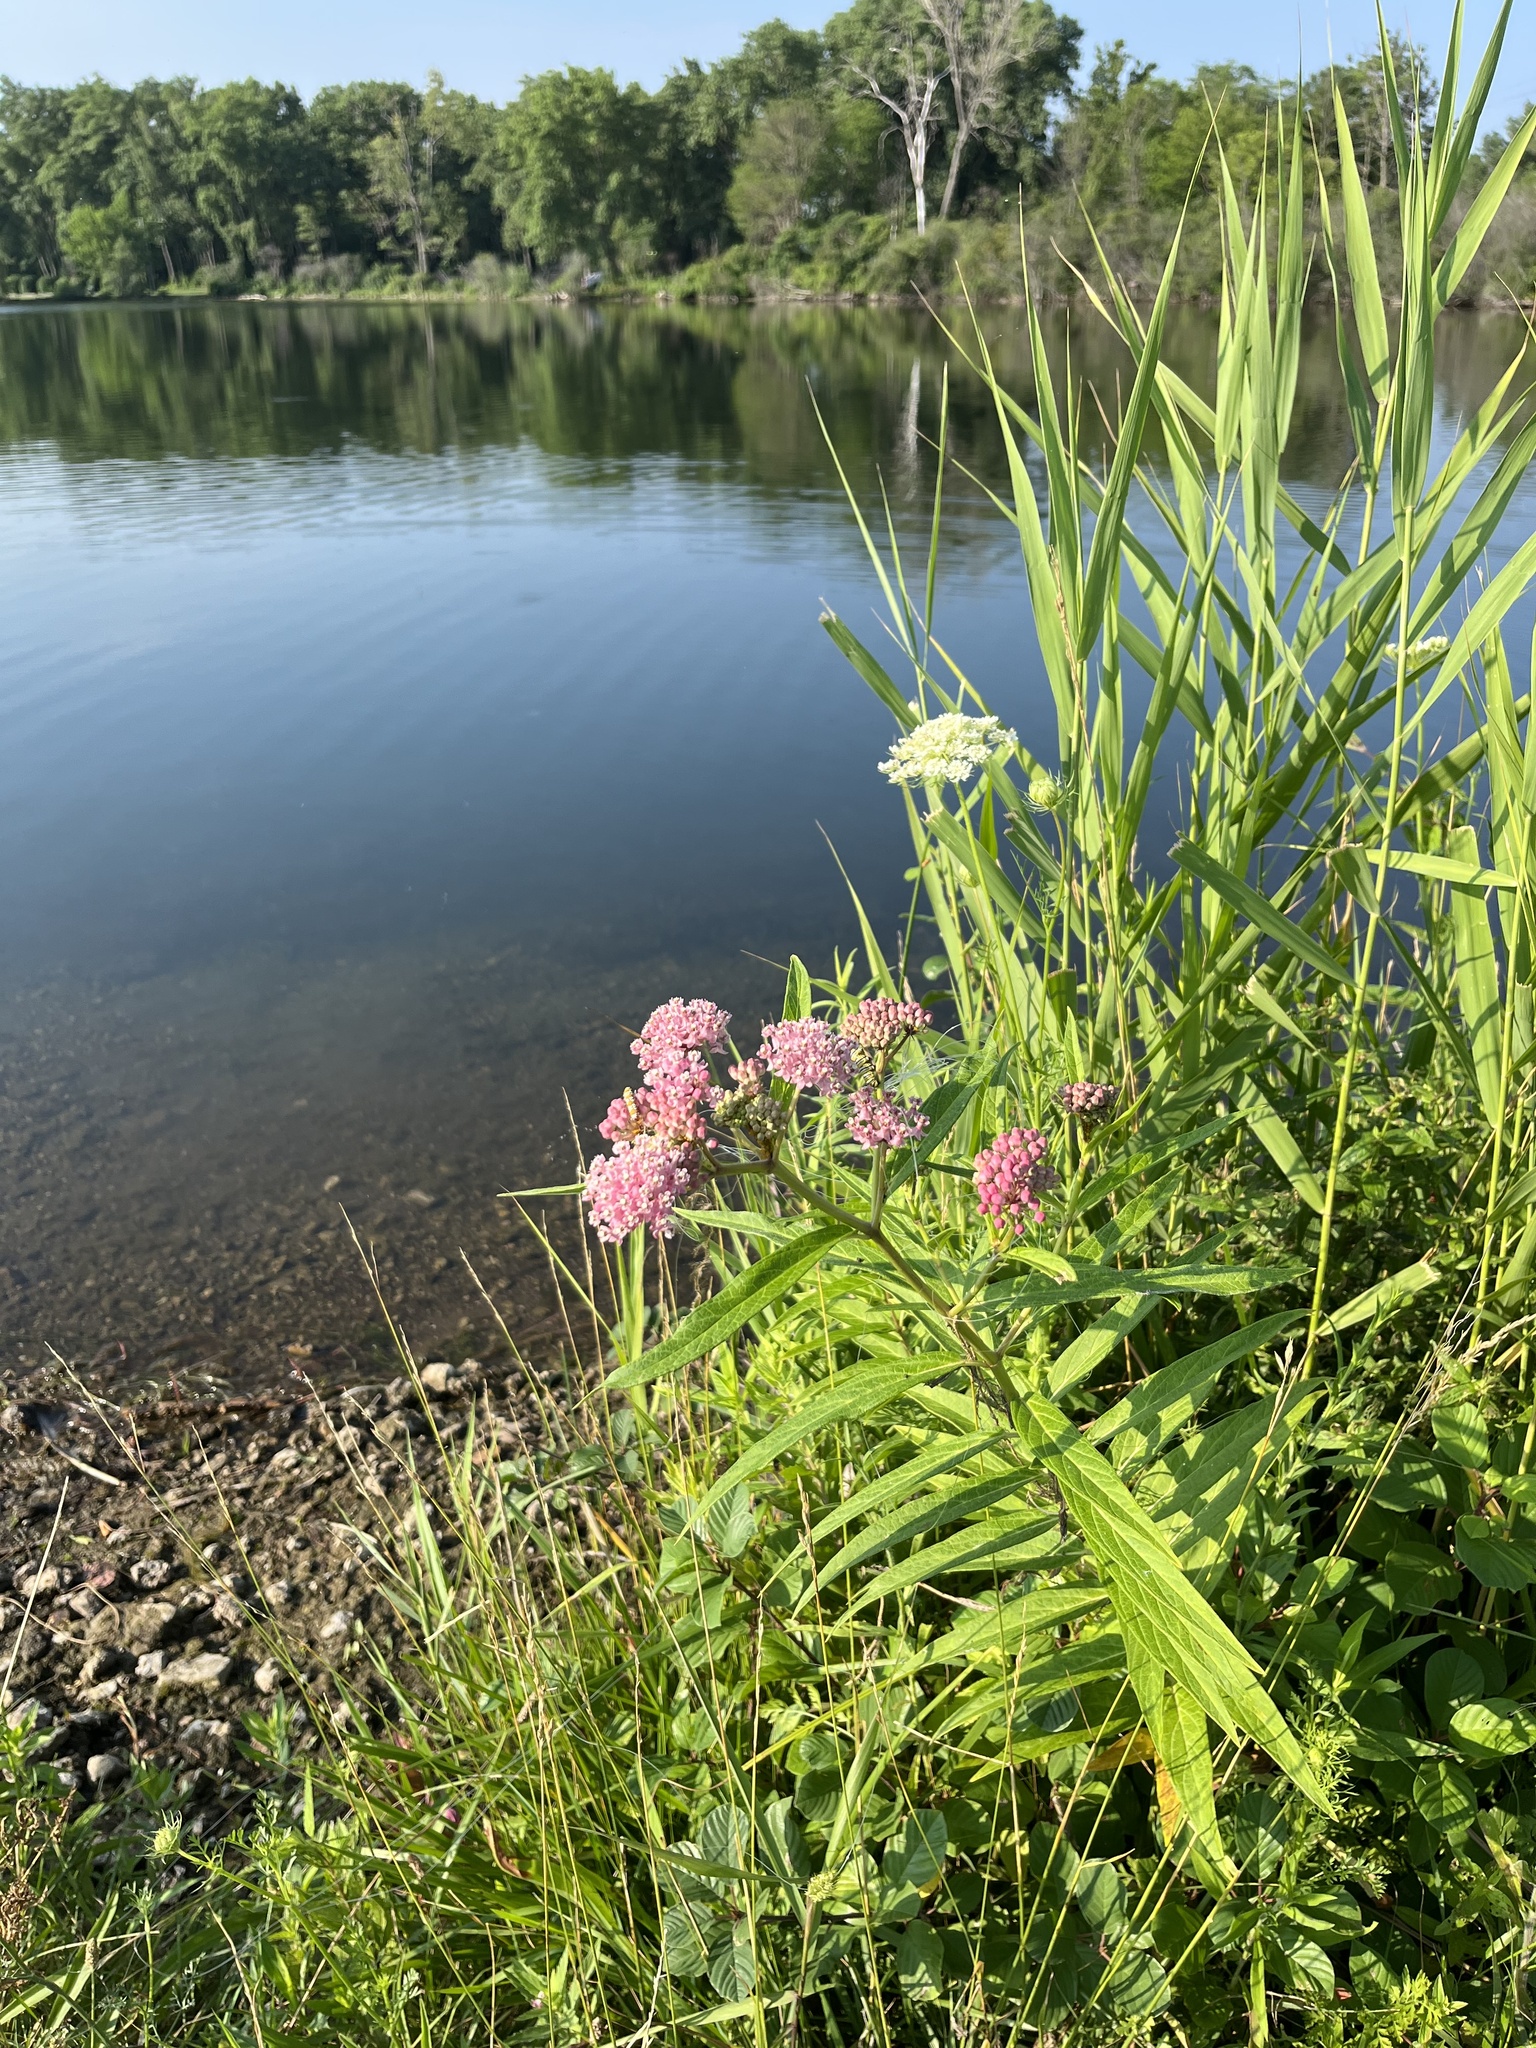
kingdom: Plantae
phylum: Tracheophyta
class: Magnoliopsida
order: Gentianales
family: Apocynaceae
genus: Asclepias
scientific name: Asclepias incarnata
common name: Swamp milkweed
